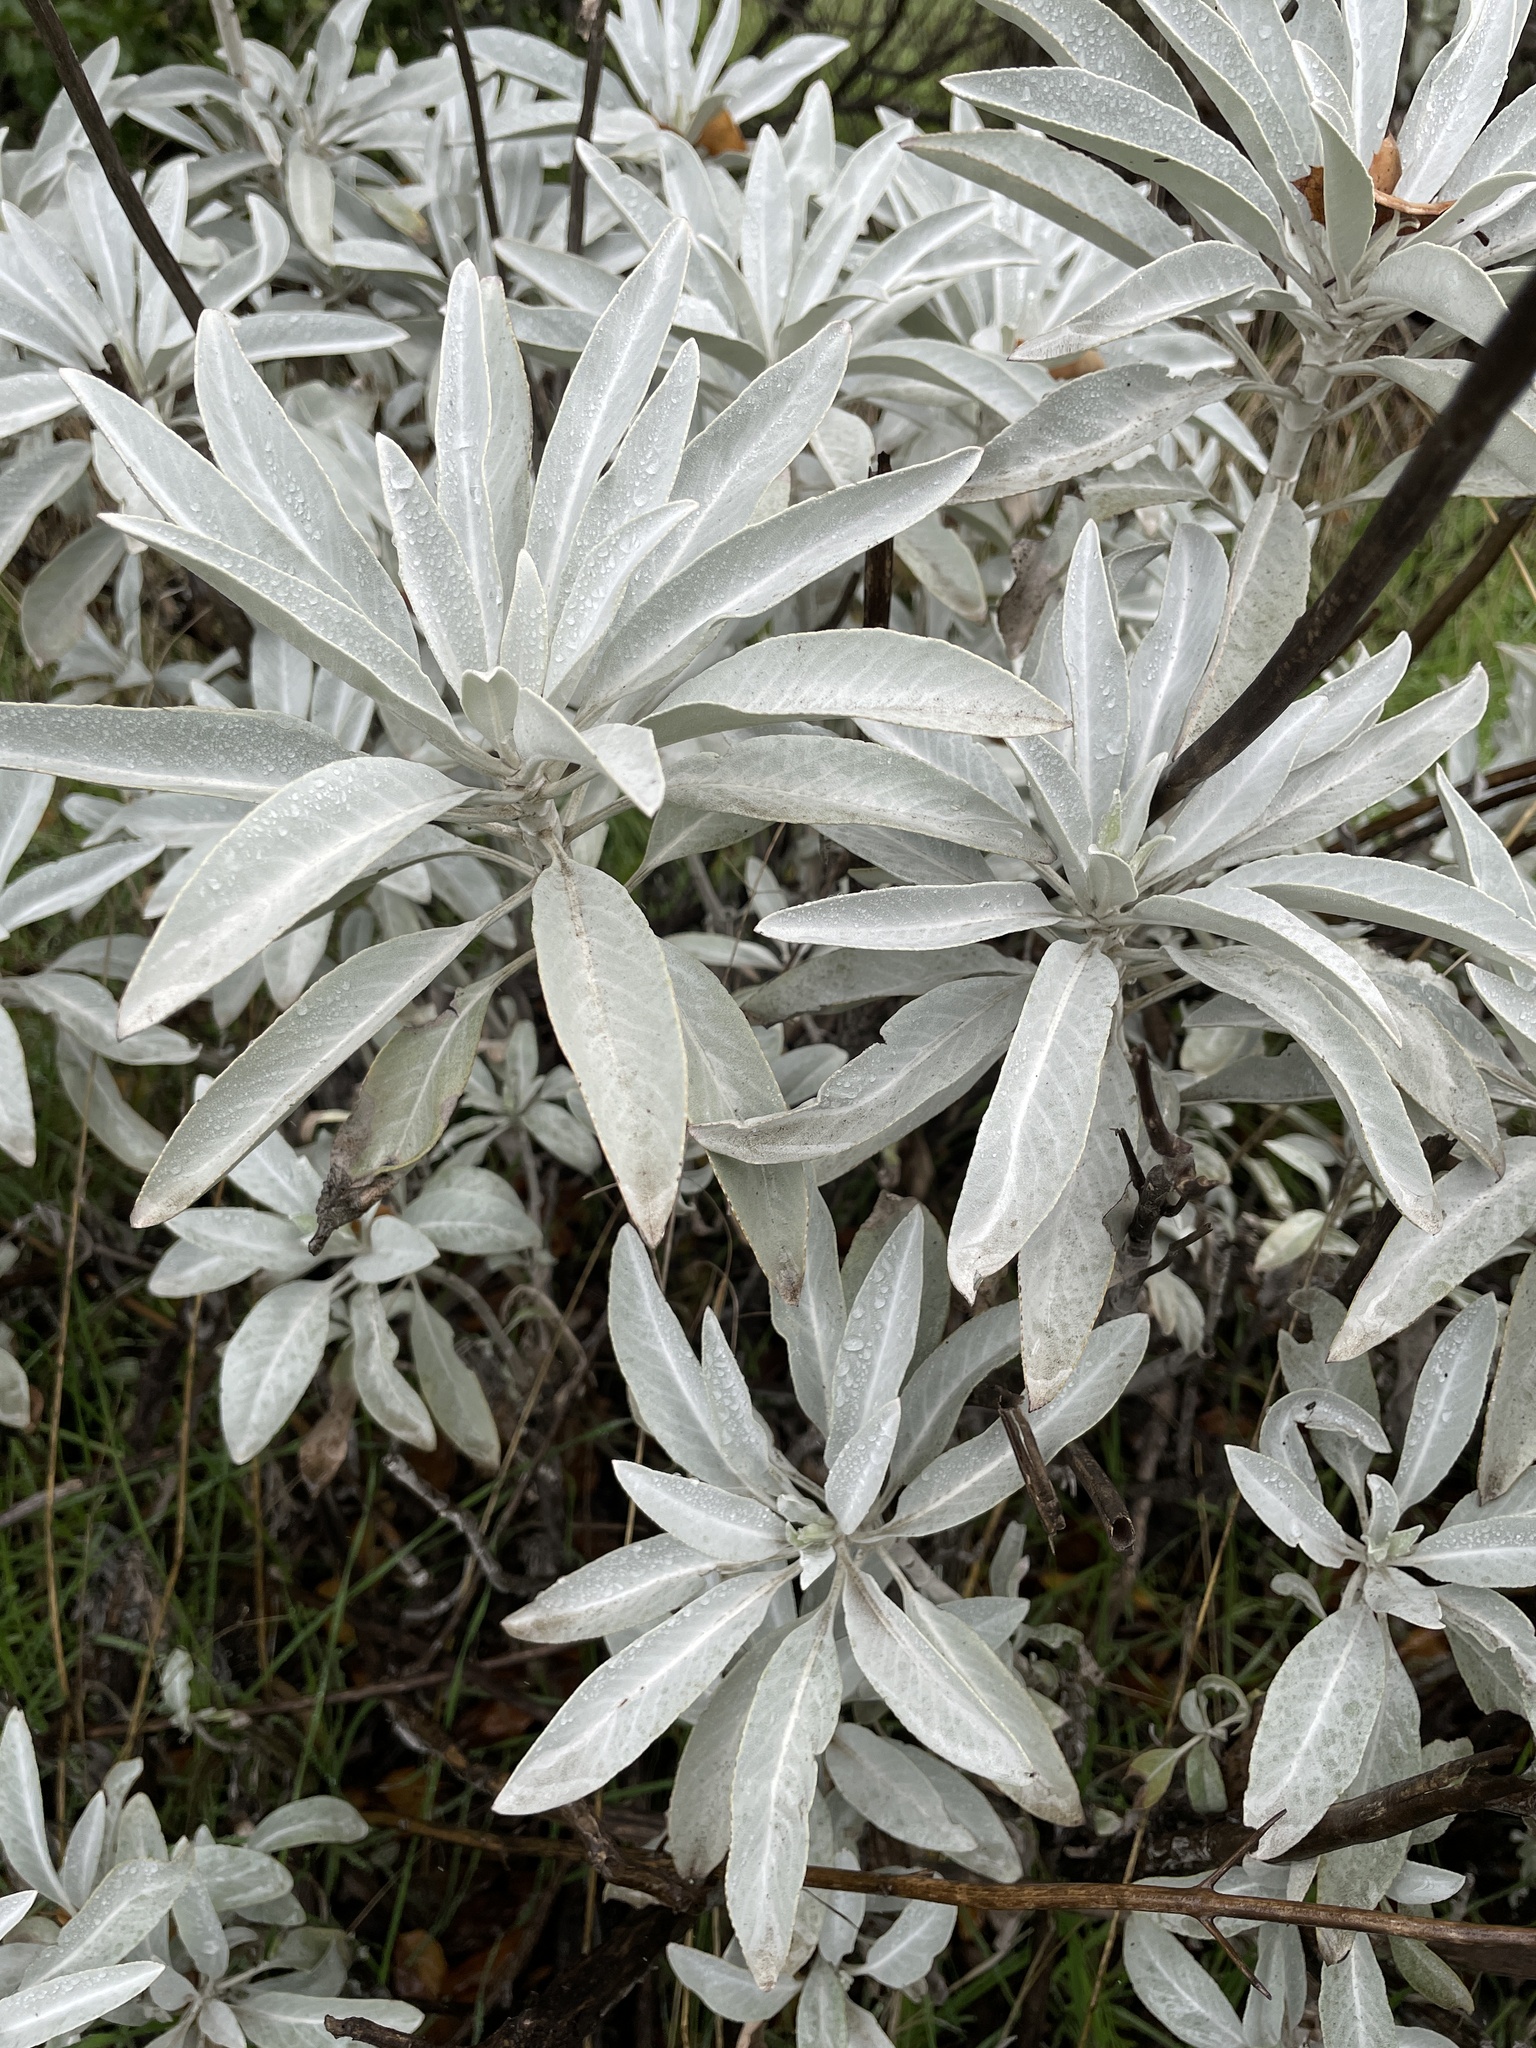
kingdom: Plantae
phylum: Tracheophyta
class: Magnoliopsida
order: Lamiales
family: Lamiaceae
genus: Salvia
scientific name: Salvia apiana
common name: White sage
